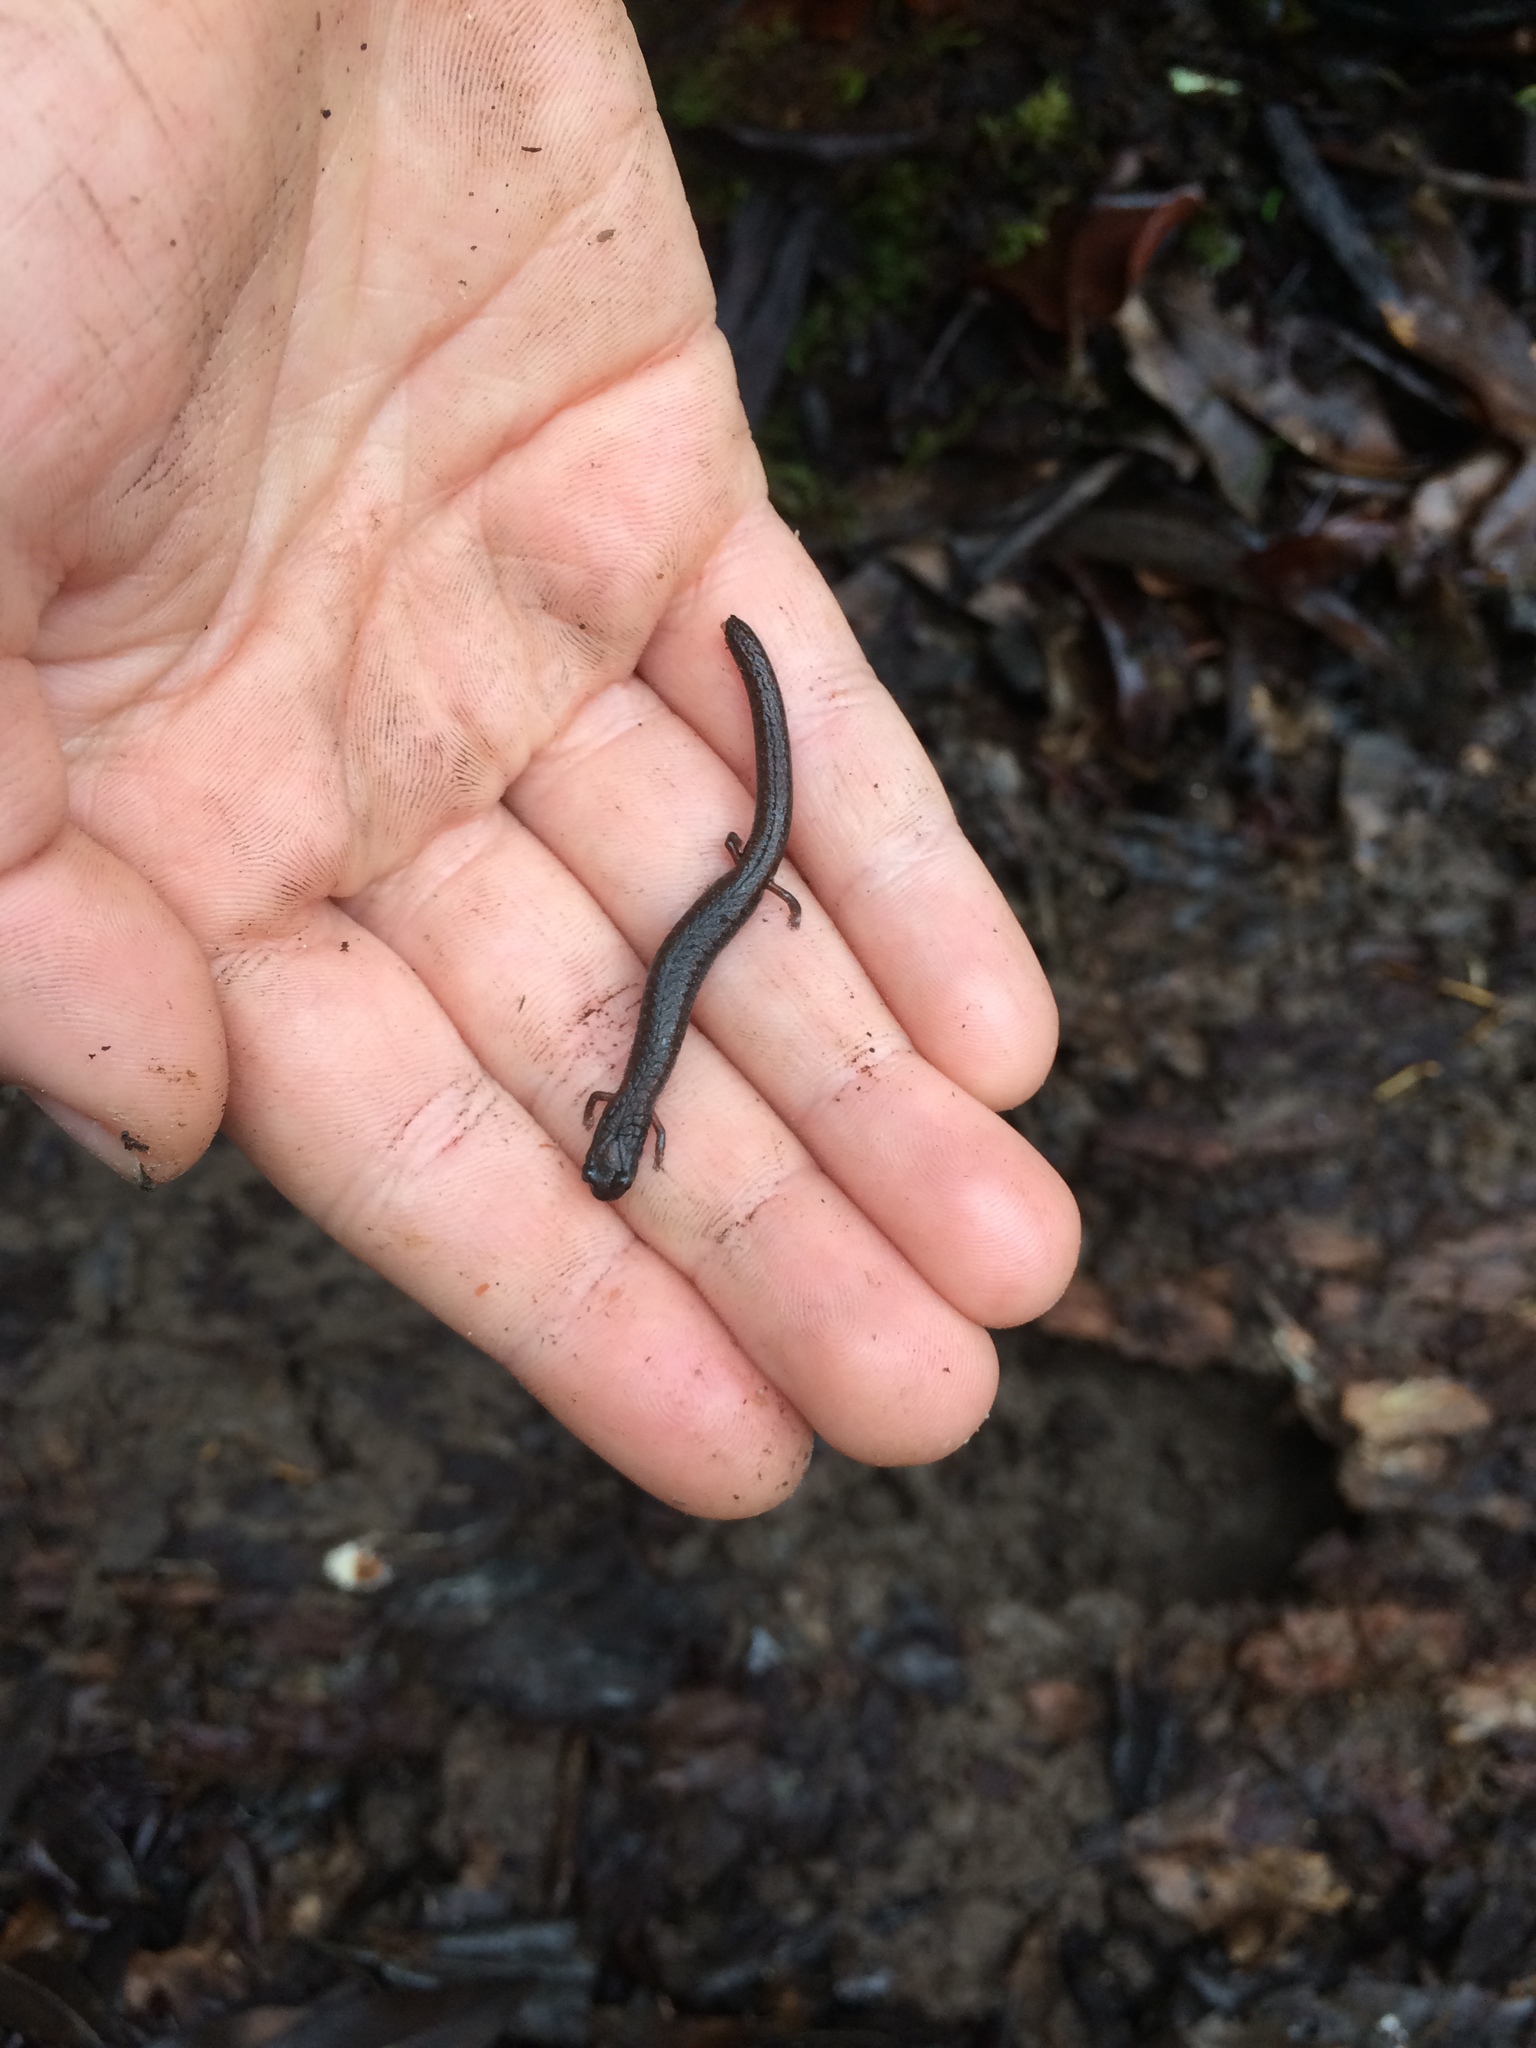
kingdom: Animalia
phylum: Chordata
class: Amphibia
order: Caudata
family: Plethodontidae
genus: Batrachoseps
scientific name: Batrachoseps attenuatus
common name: California slender salamander
